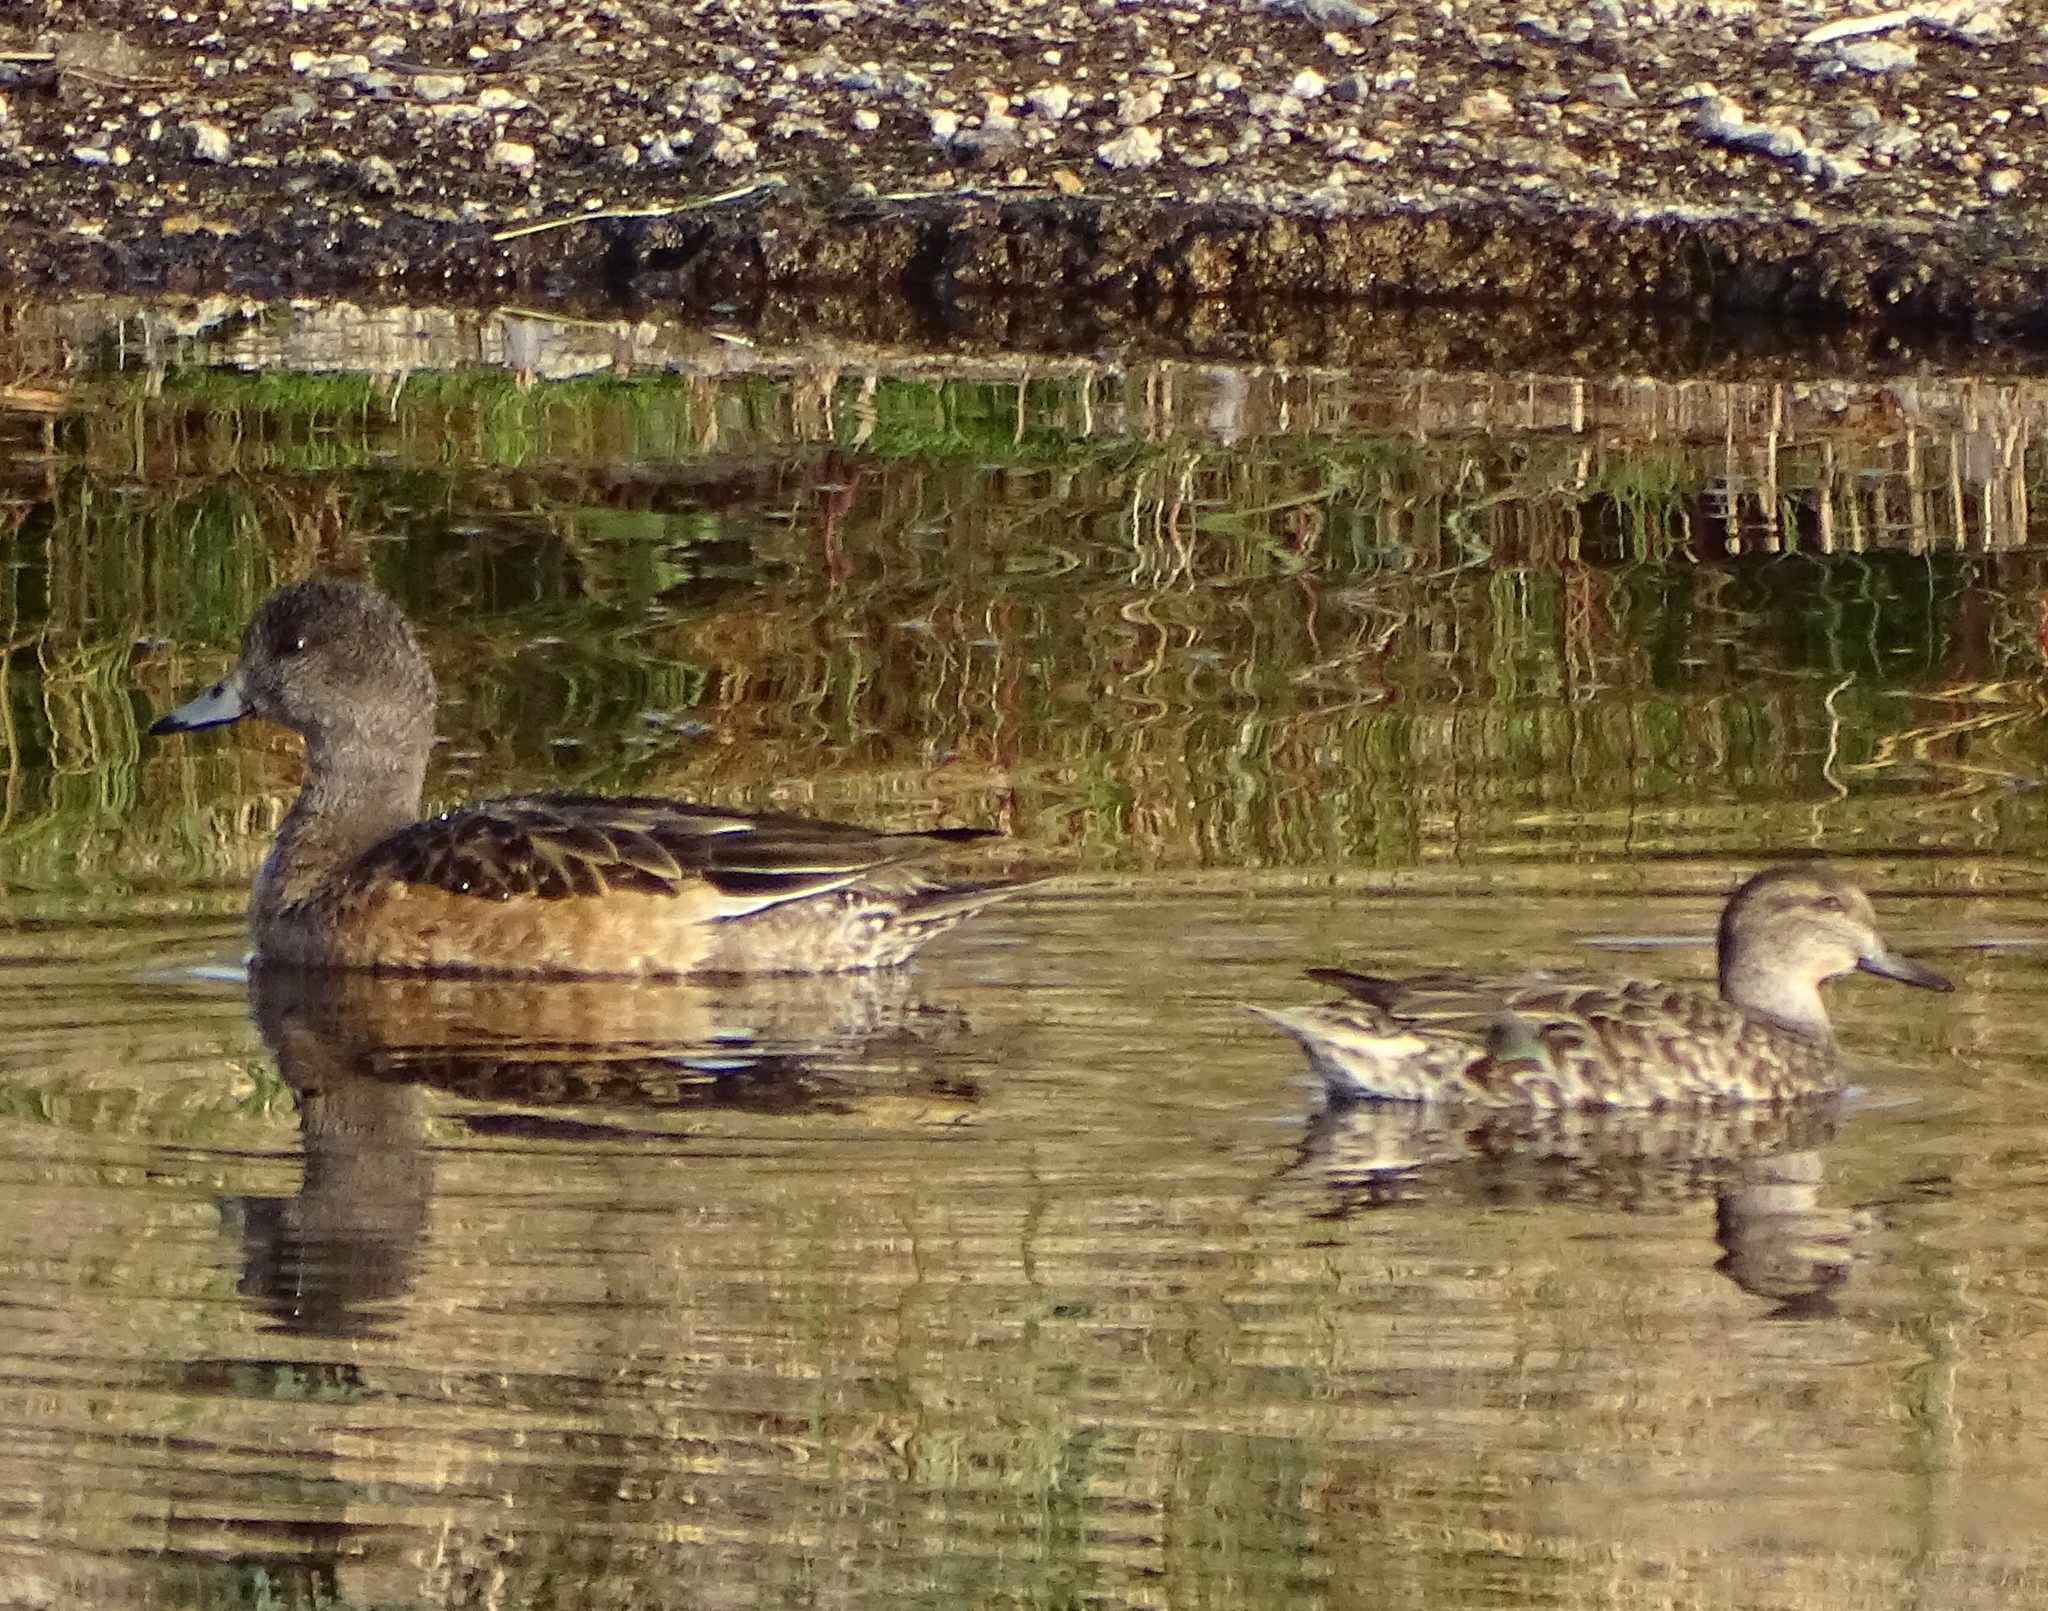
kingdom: Animalia
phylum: Chordata
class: Aves
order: Anseriformes
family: Anatidae
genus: Mareca
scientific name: Mareca americana
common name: American wigeon
